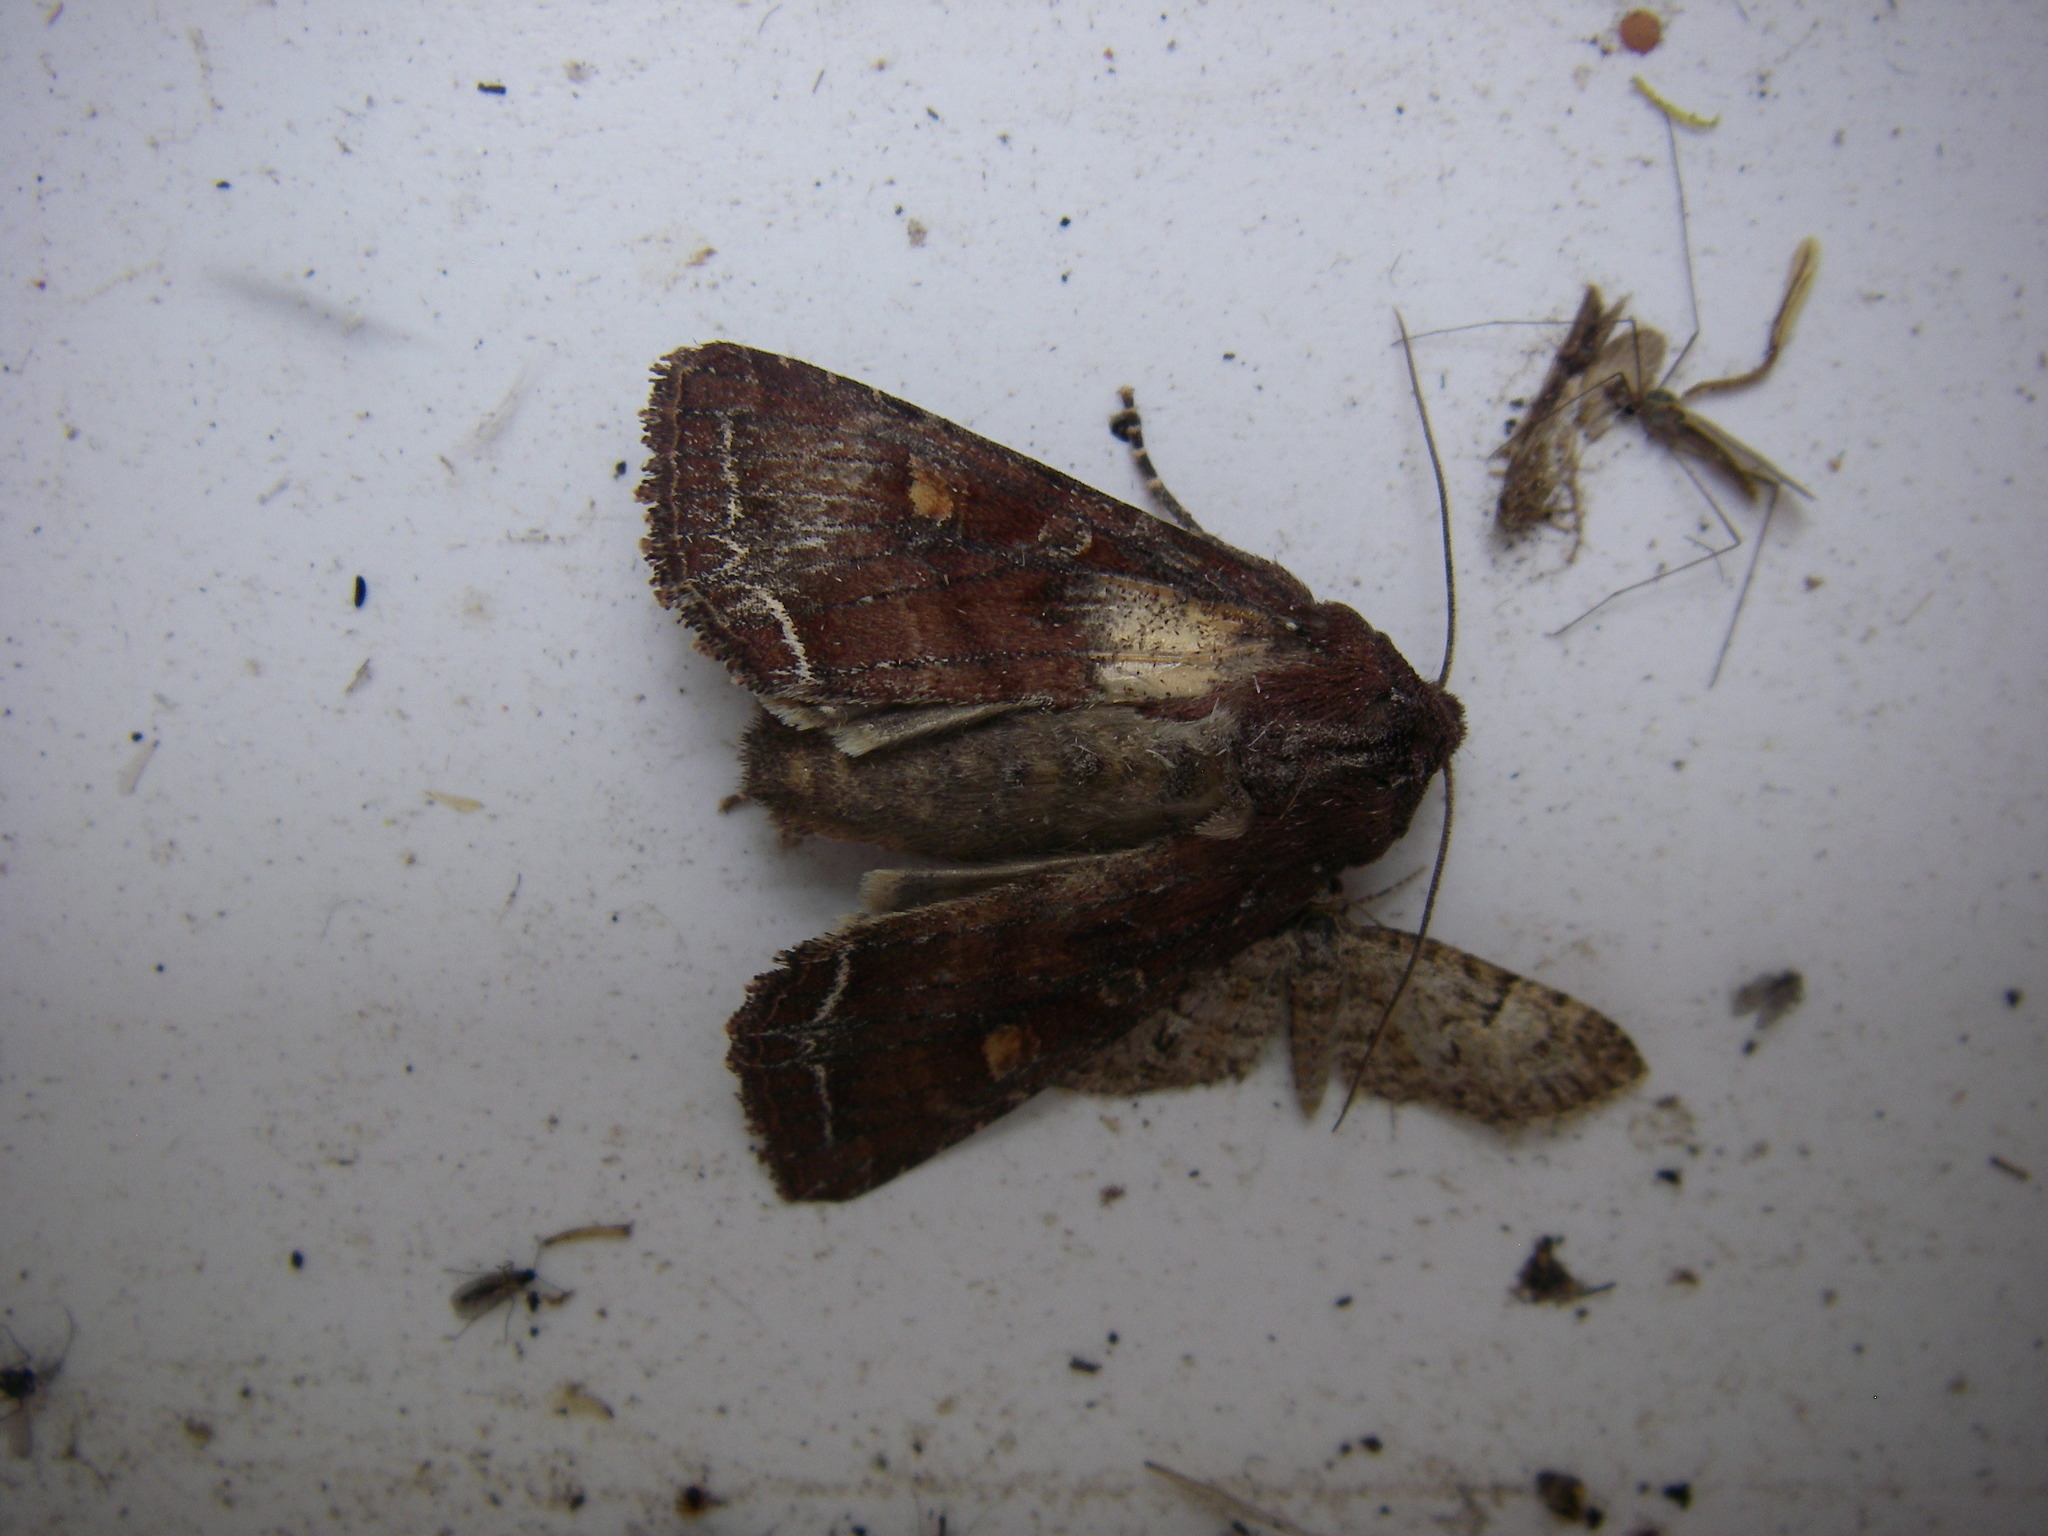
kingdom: Animalia
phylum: Arthropoda
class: Insecta
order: Lepidoptera
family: Noctuidae
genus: Lacanobia
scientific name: Lacanobia oleracea
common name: Bright-line brown-eye
